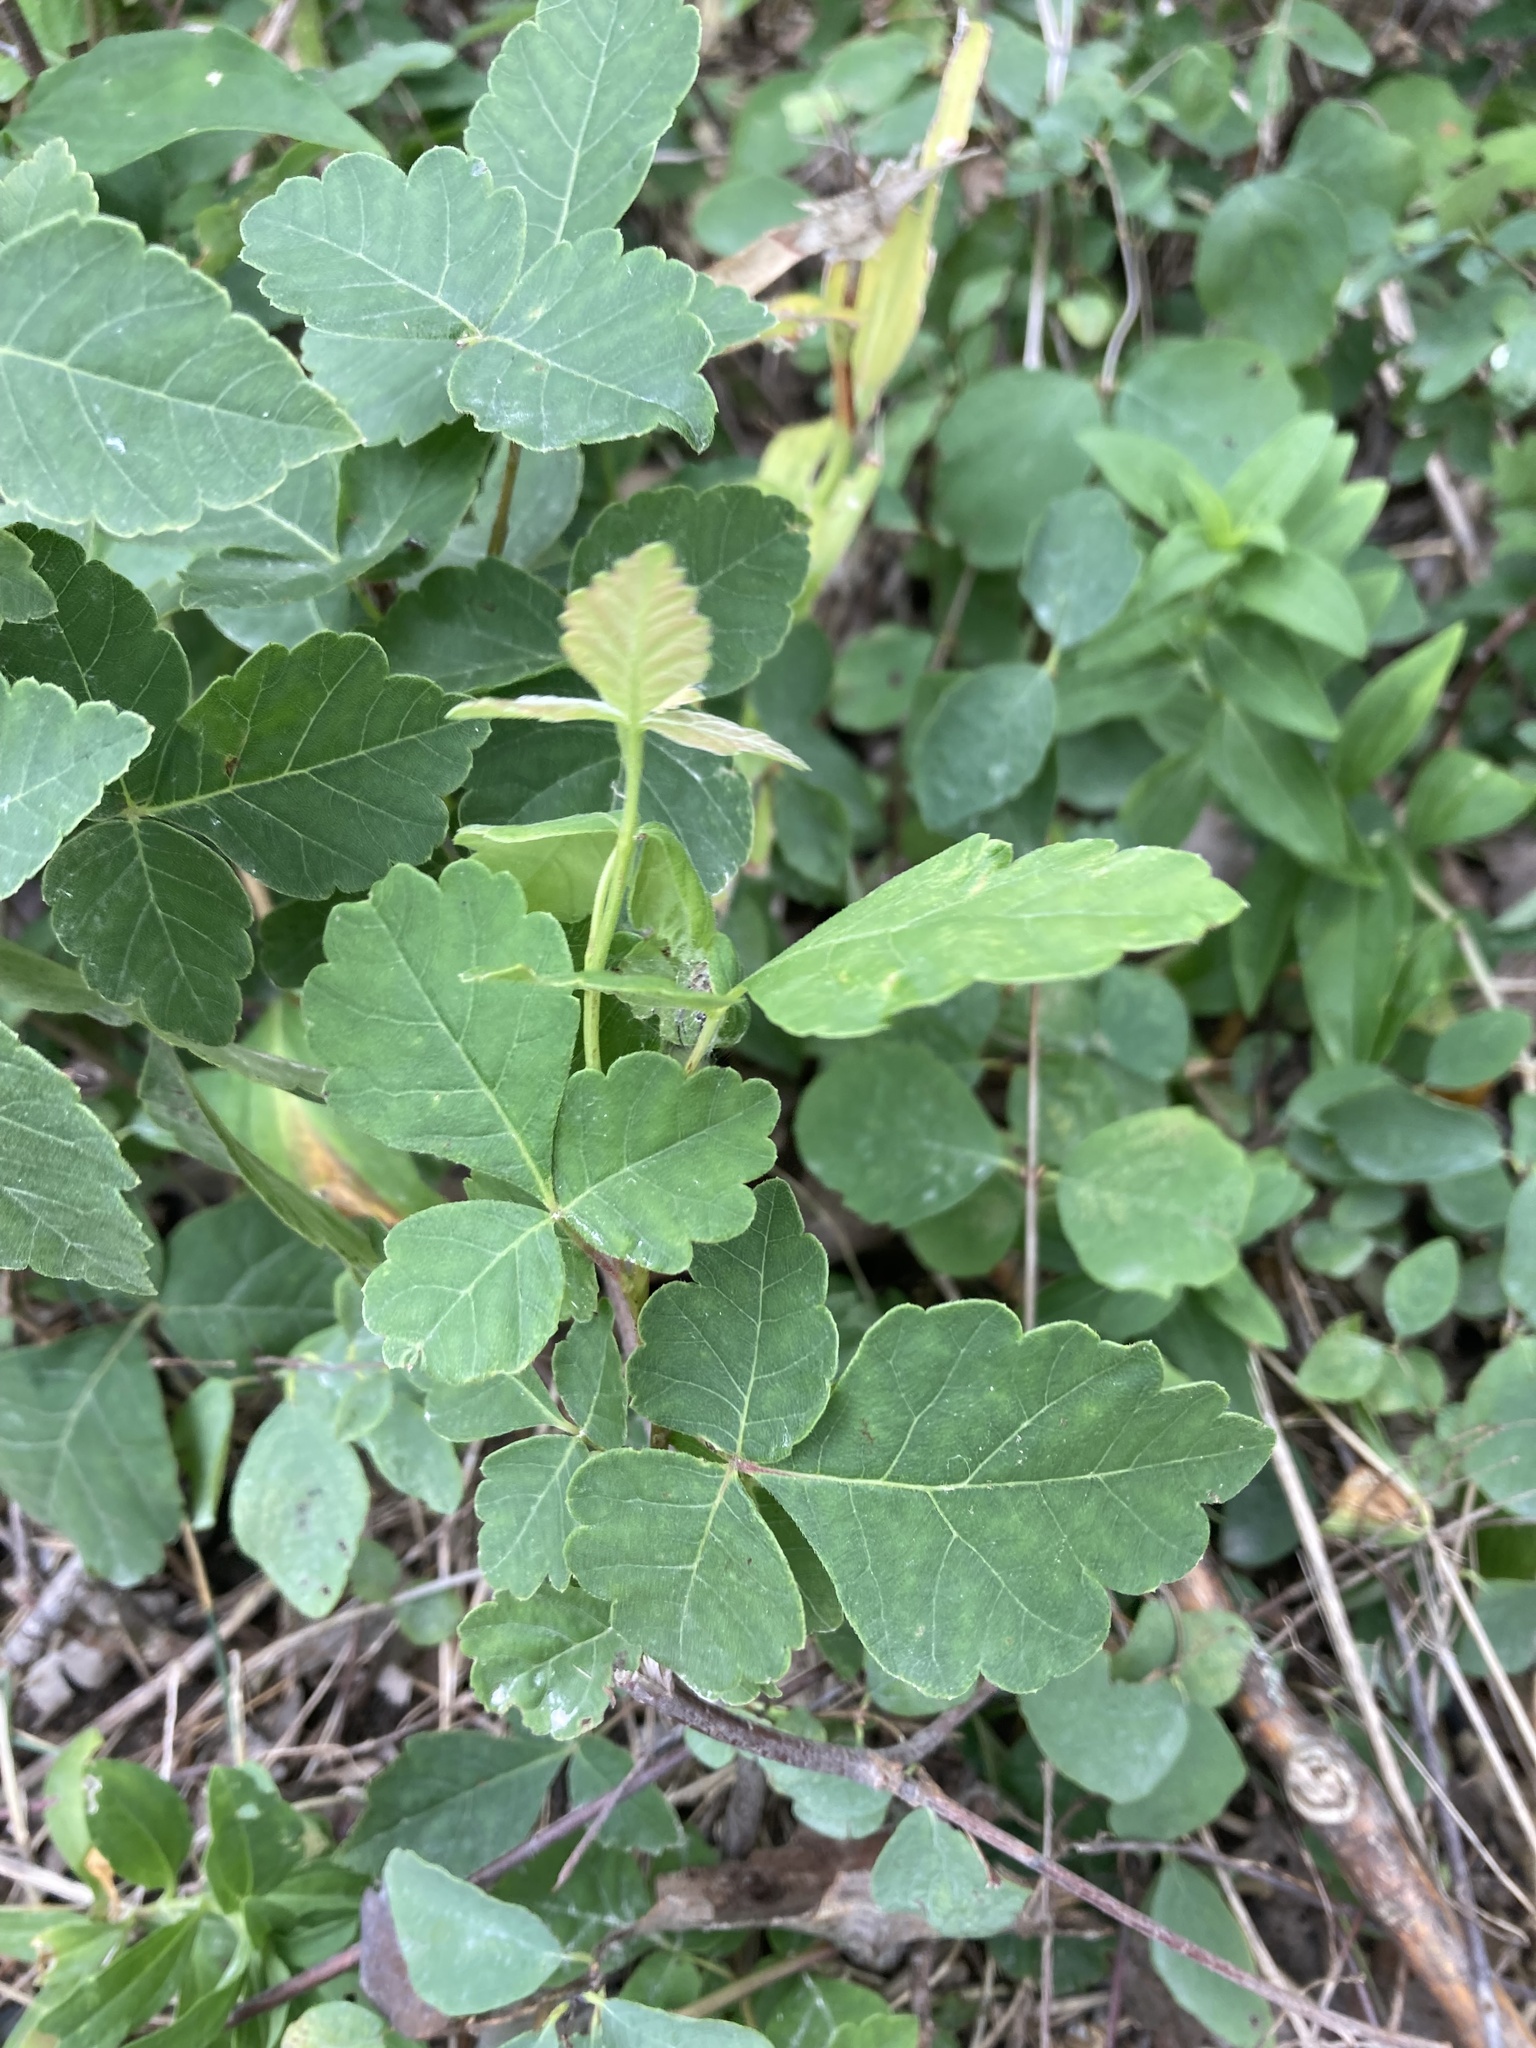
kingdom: Plantae
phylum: Tracheophyta
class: Magnoliopsida
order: Sapindales
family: Anacardiaceae
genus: Rhus
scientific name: Rhus aromatica
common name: Aromatic sumac
